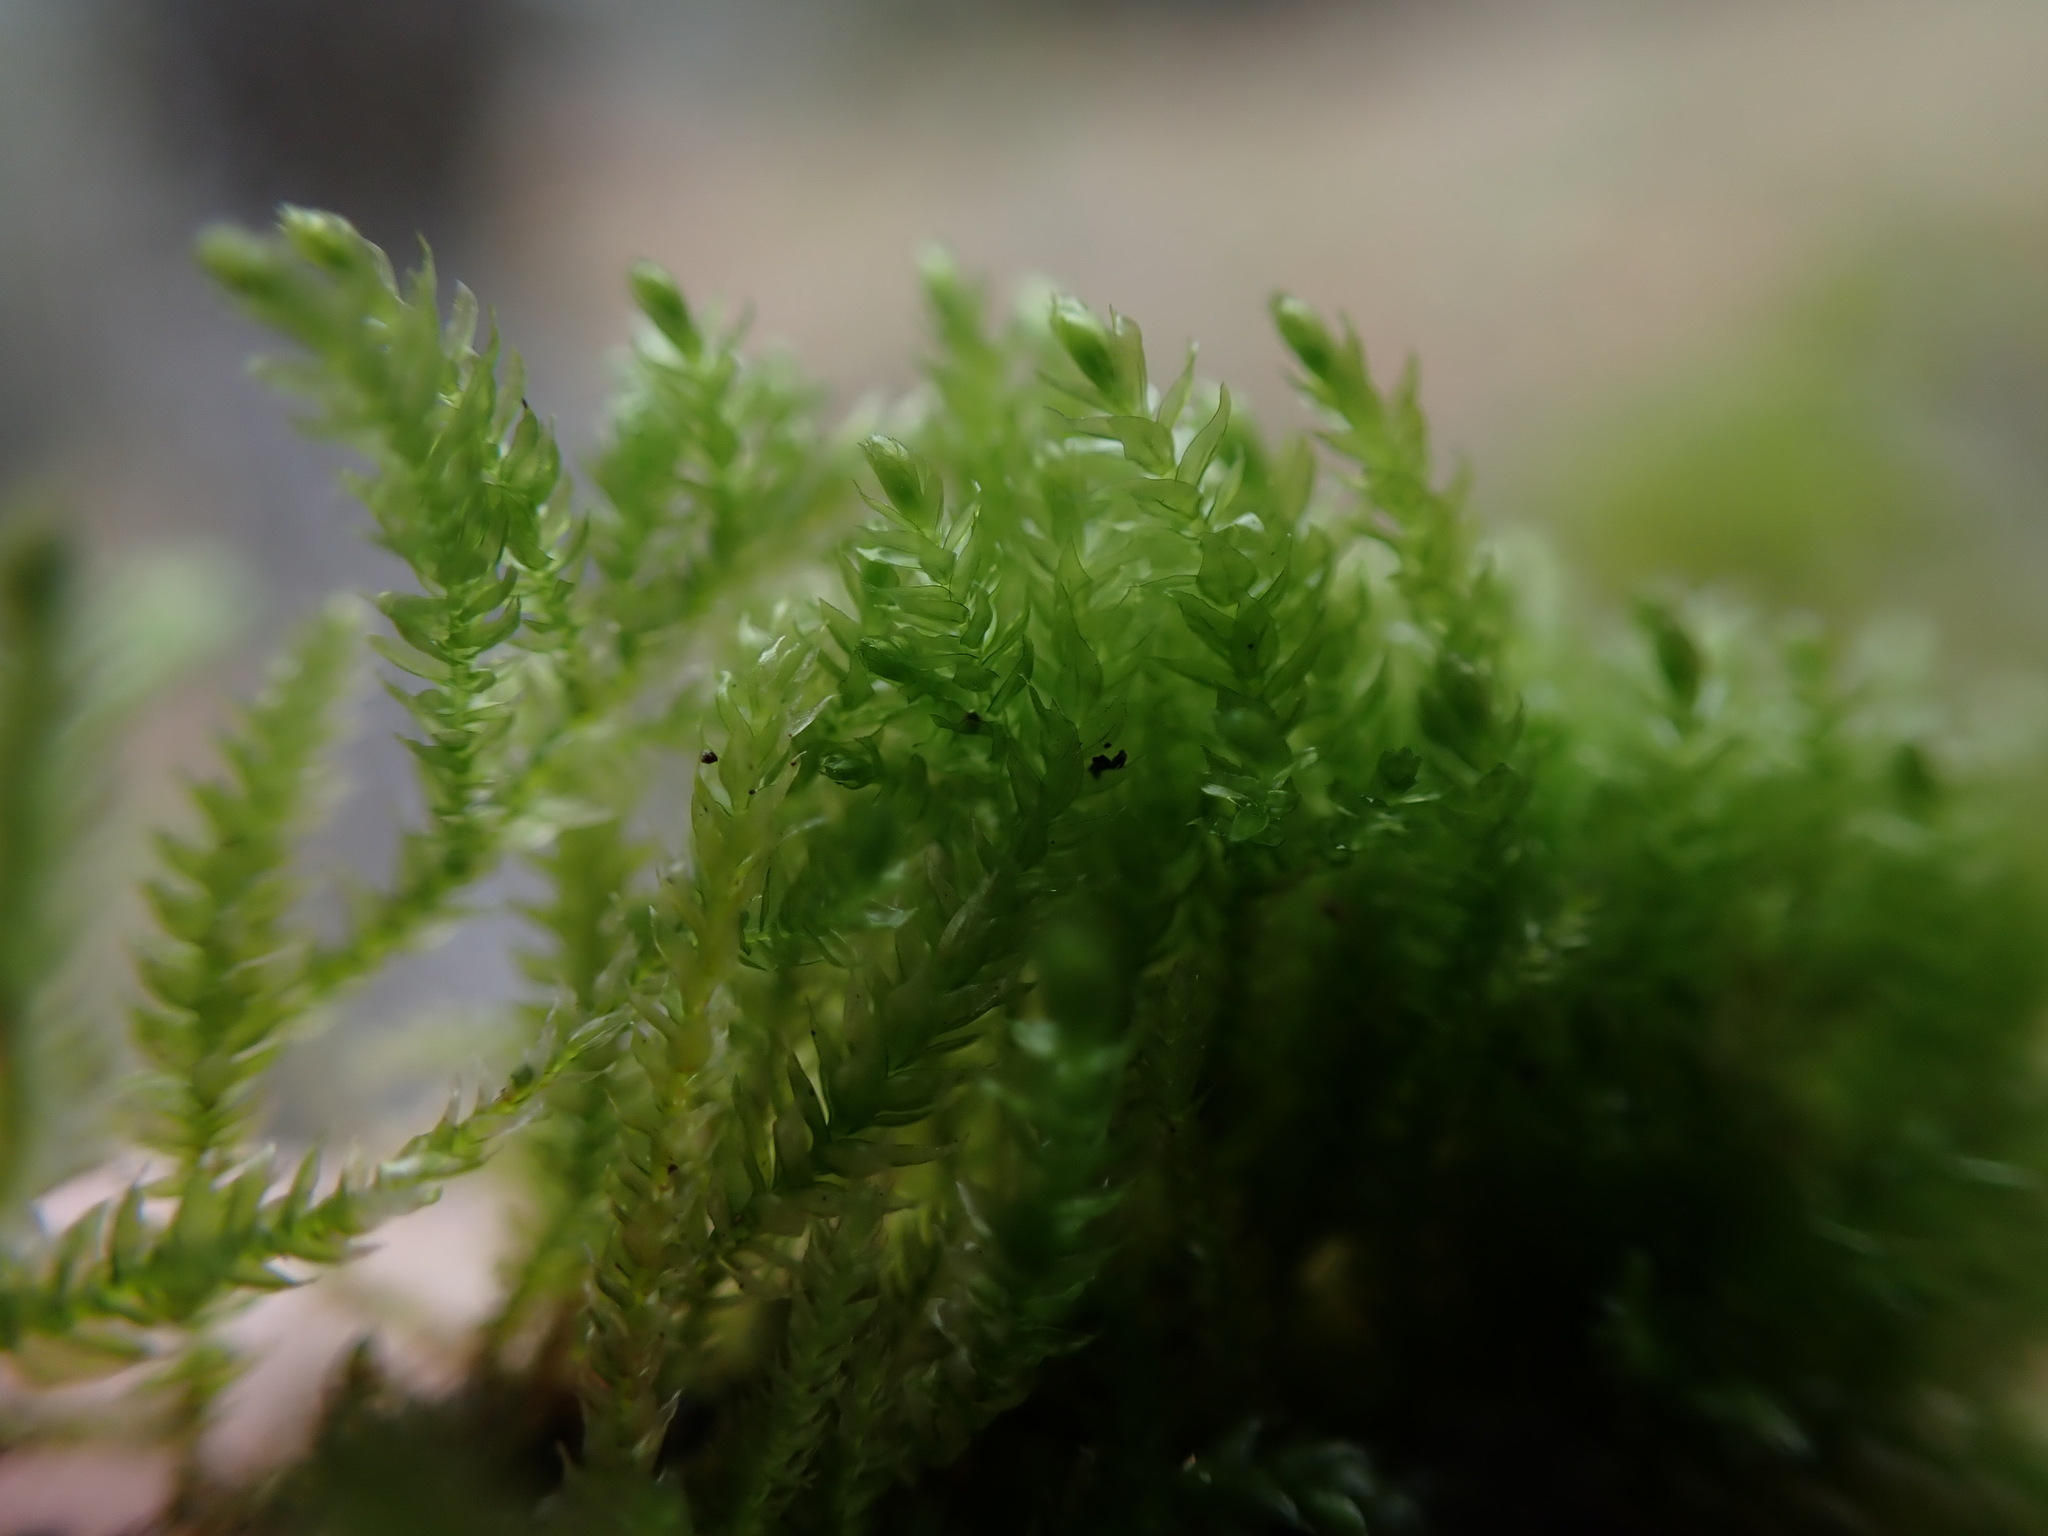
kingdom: Plantae
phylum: Bryophyta
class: Bryopsida
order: Hypnales
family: Lembophyllaceae
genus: Pseudisothecium
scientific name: Pseudisothecium cristatum
